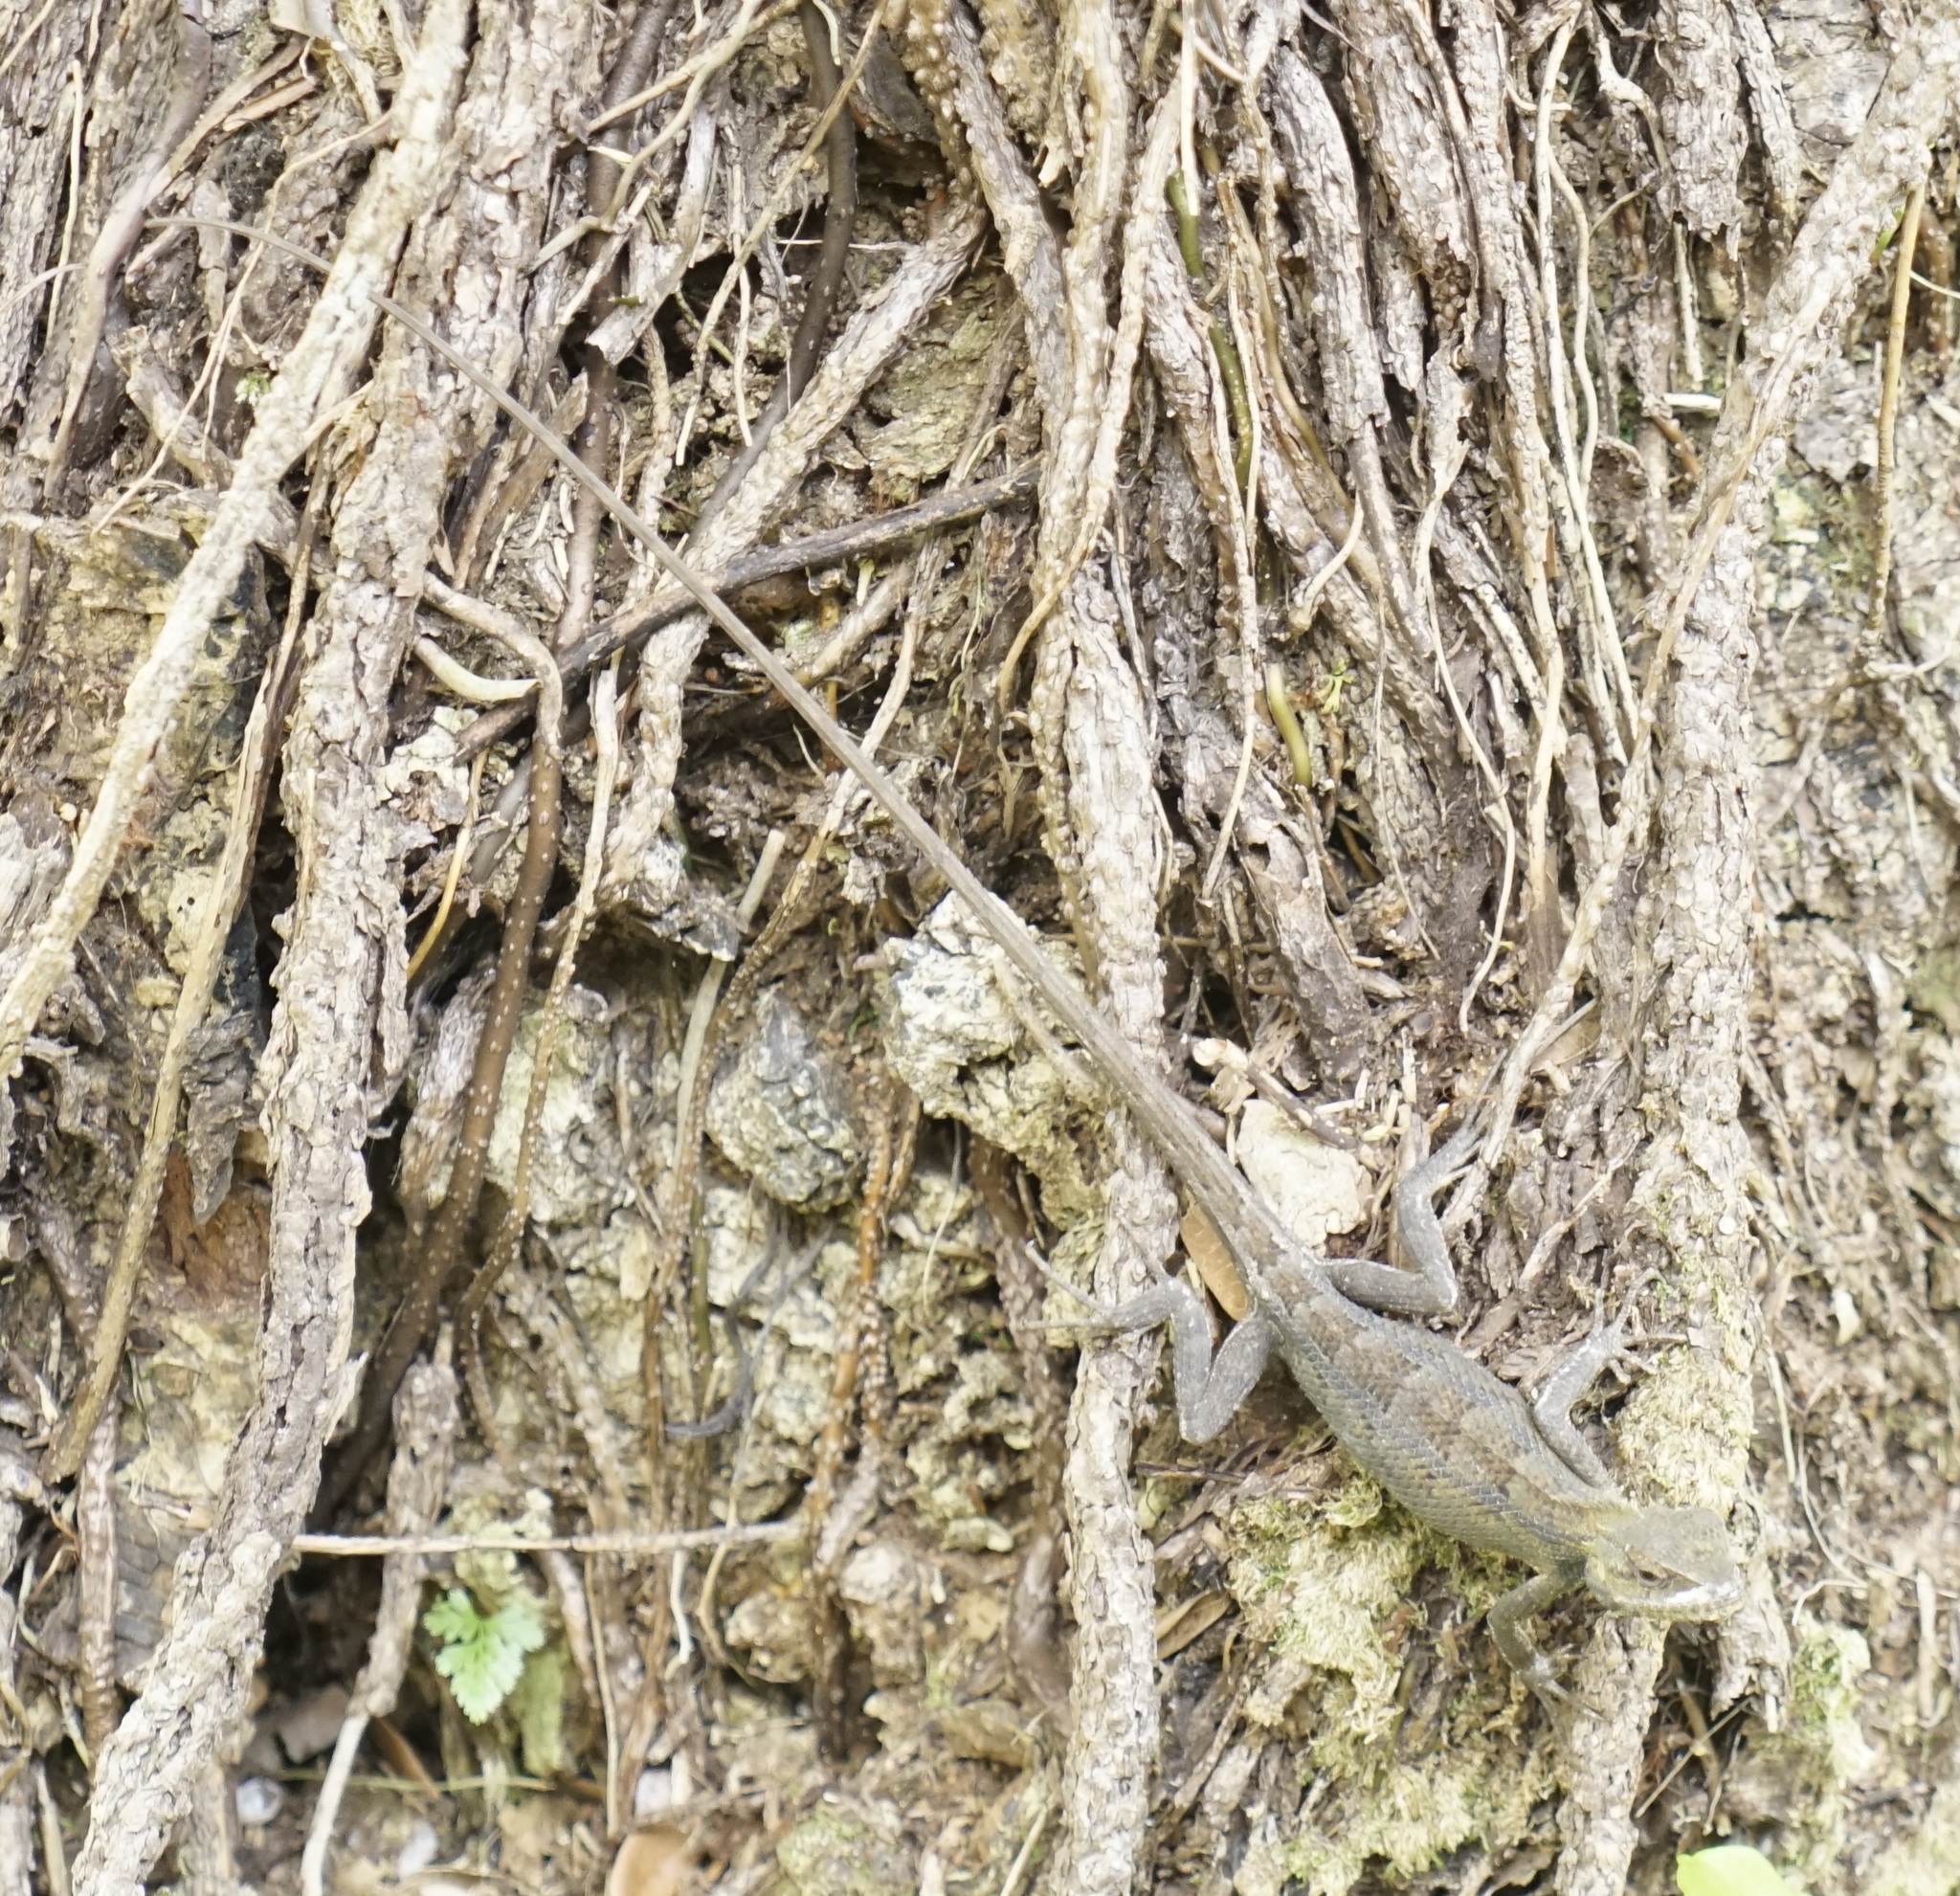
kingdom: Animalia
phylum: Chordata
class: Squamata
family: Agamidae
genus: Calotes
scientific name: Calotes versicolor
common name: Oriental garden lizard
